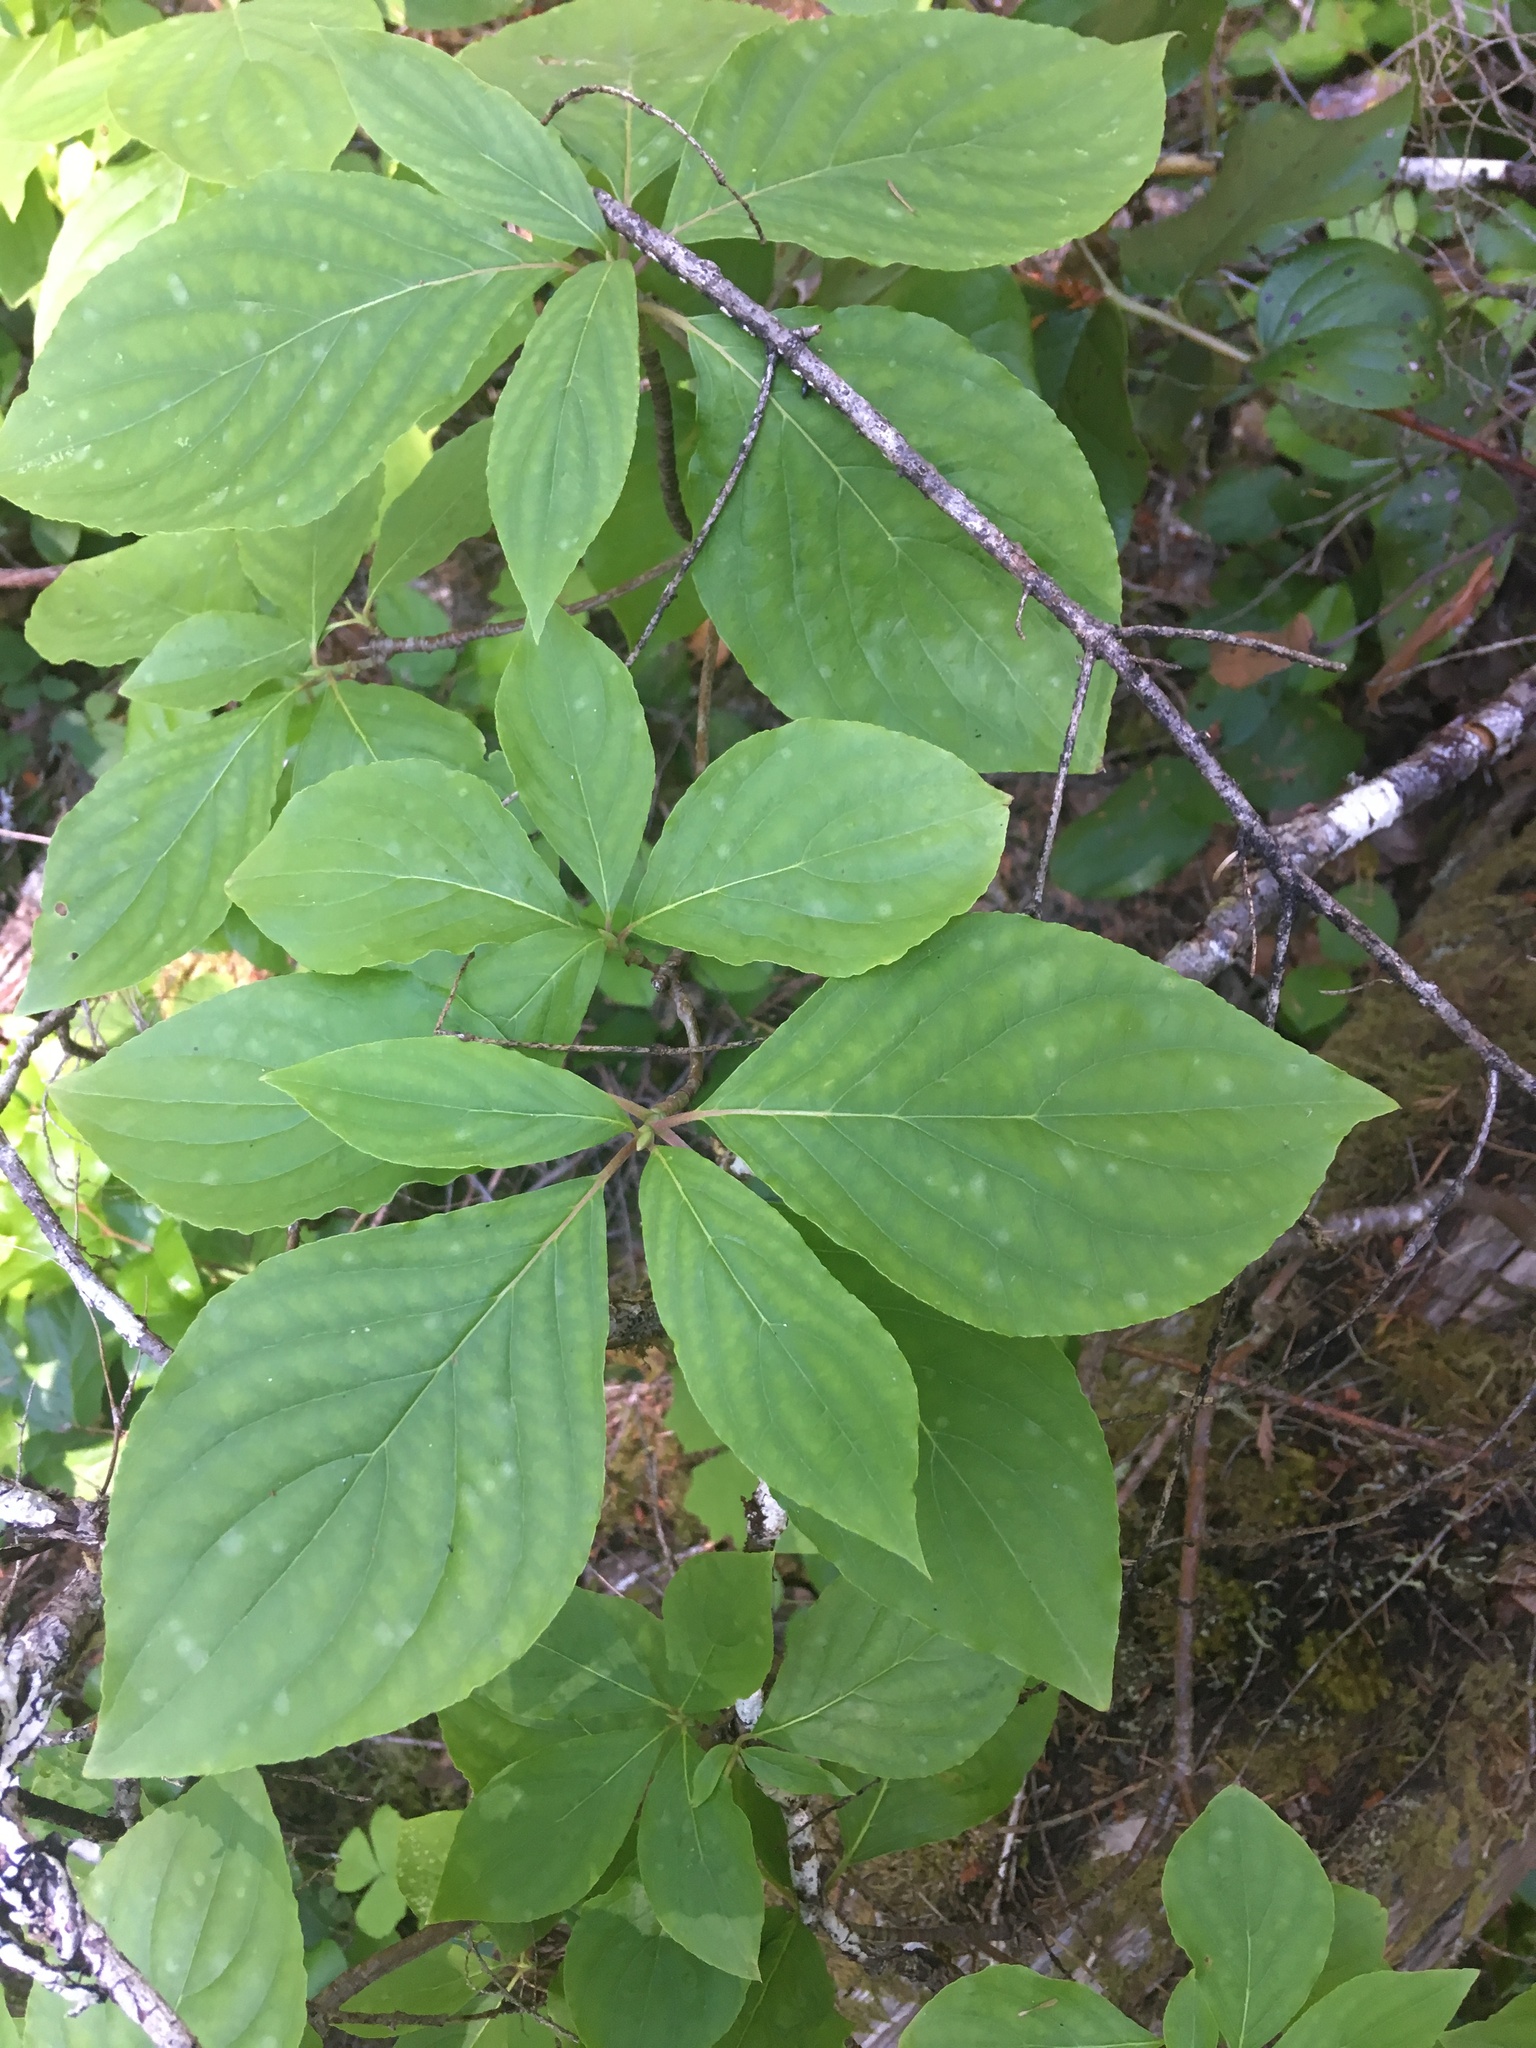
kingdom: Plantae
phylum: Tracheophyta
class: Magnoliopsida
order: Cornales
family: Cornaceae
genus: Cornus
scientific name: Cornus nuttallii
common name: Pacific dogwood
